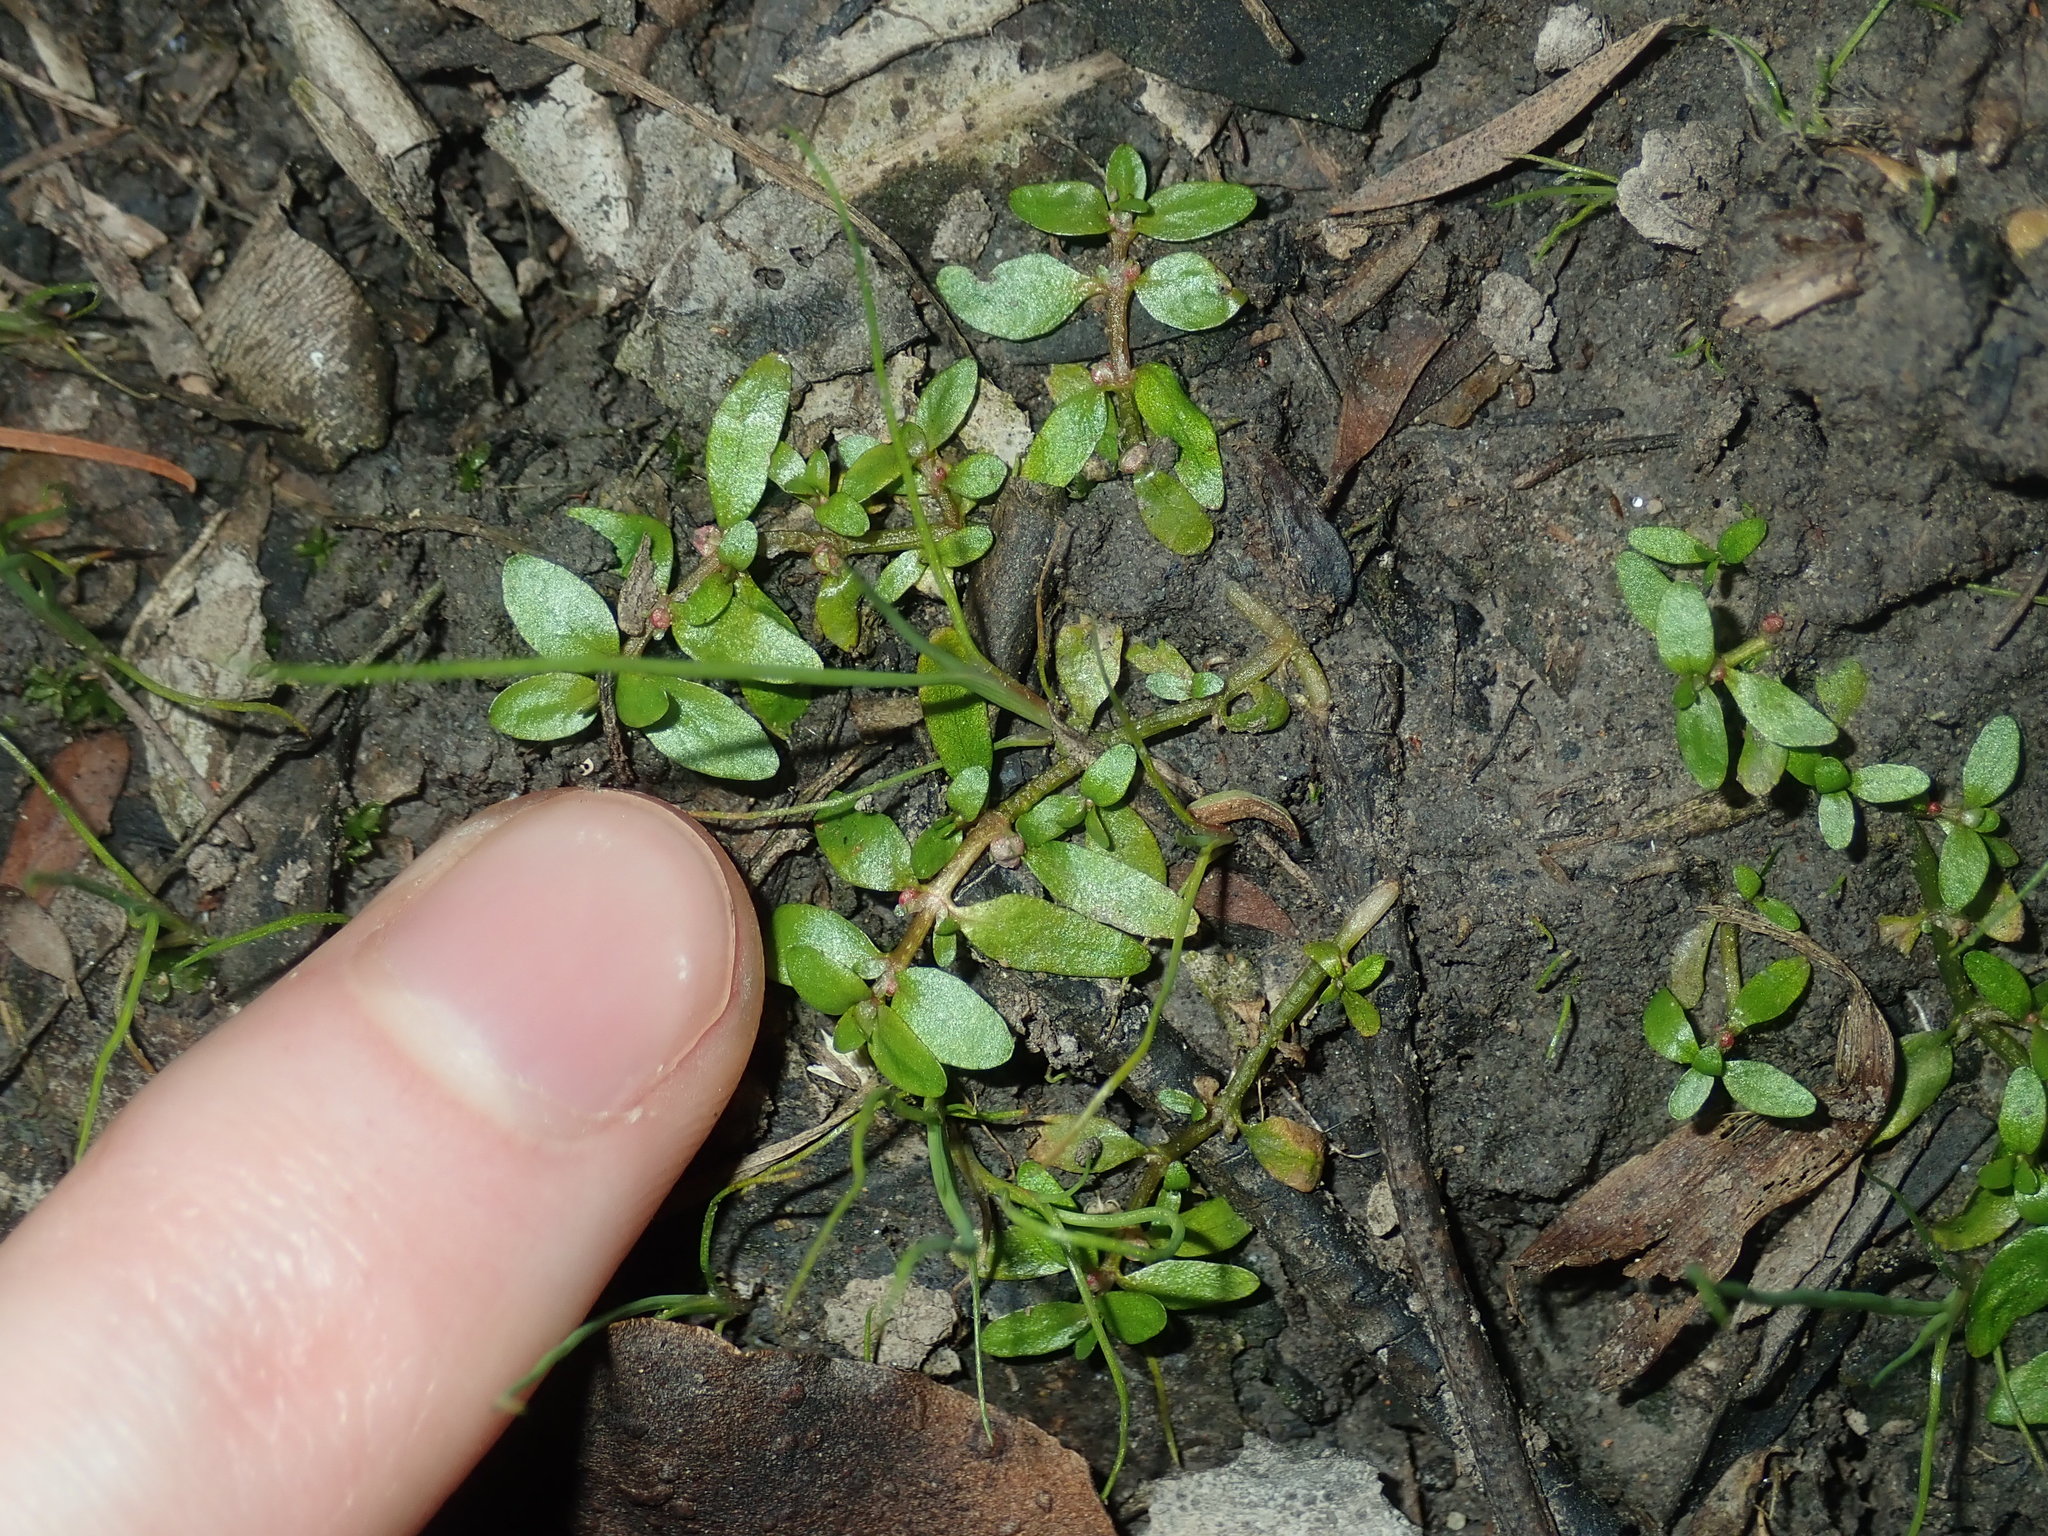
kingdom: Plantae
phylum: Tracheophyta
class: Magnoliopsida
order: Malpighiales
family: Elatinaceae
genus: Elatine
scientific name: Elatine gratioloides
